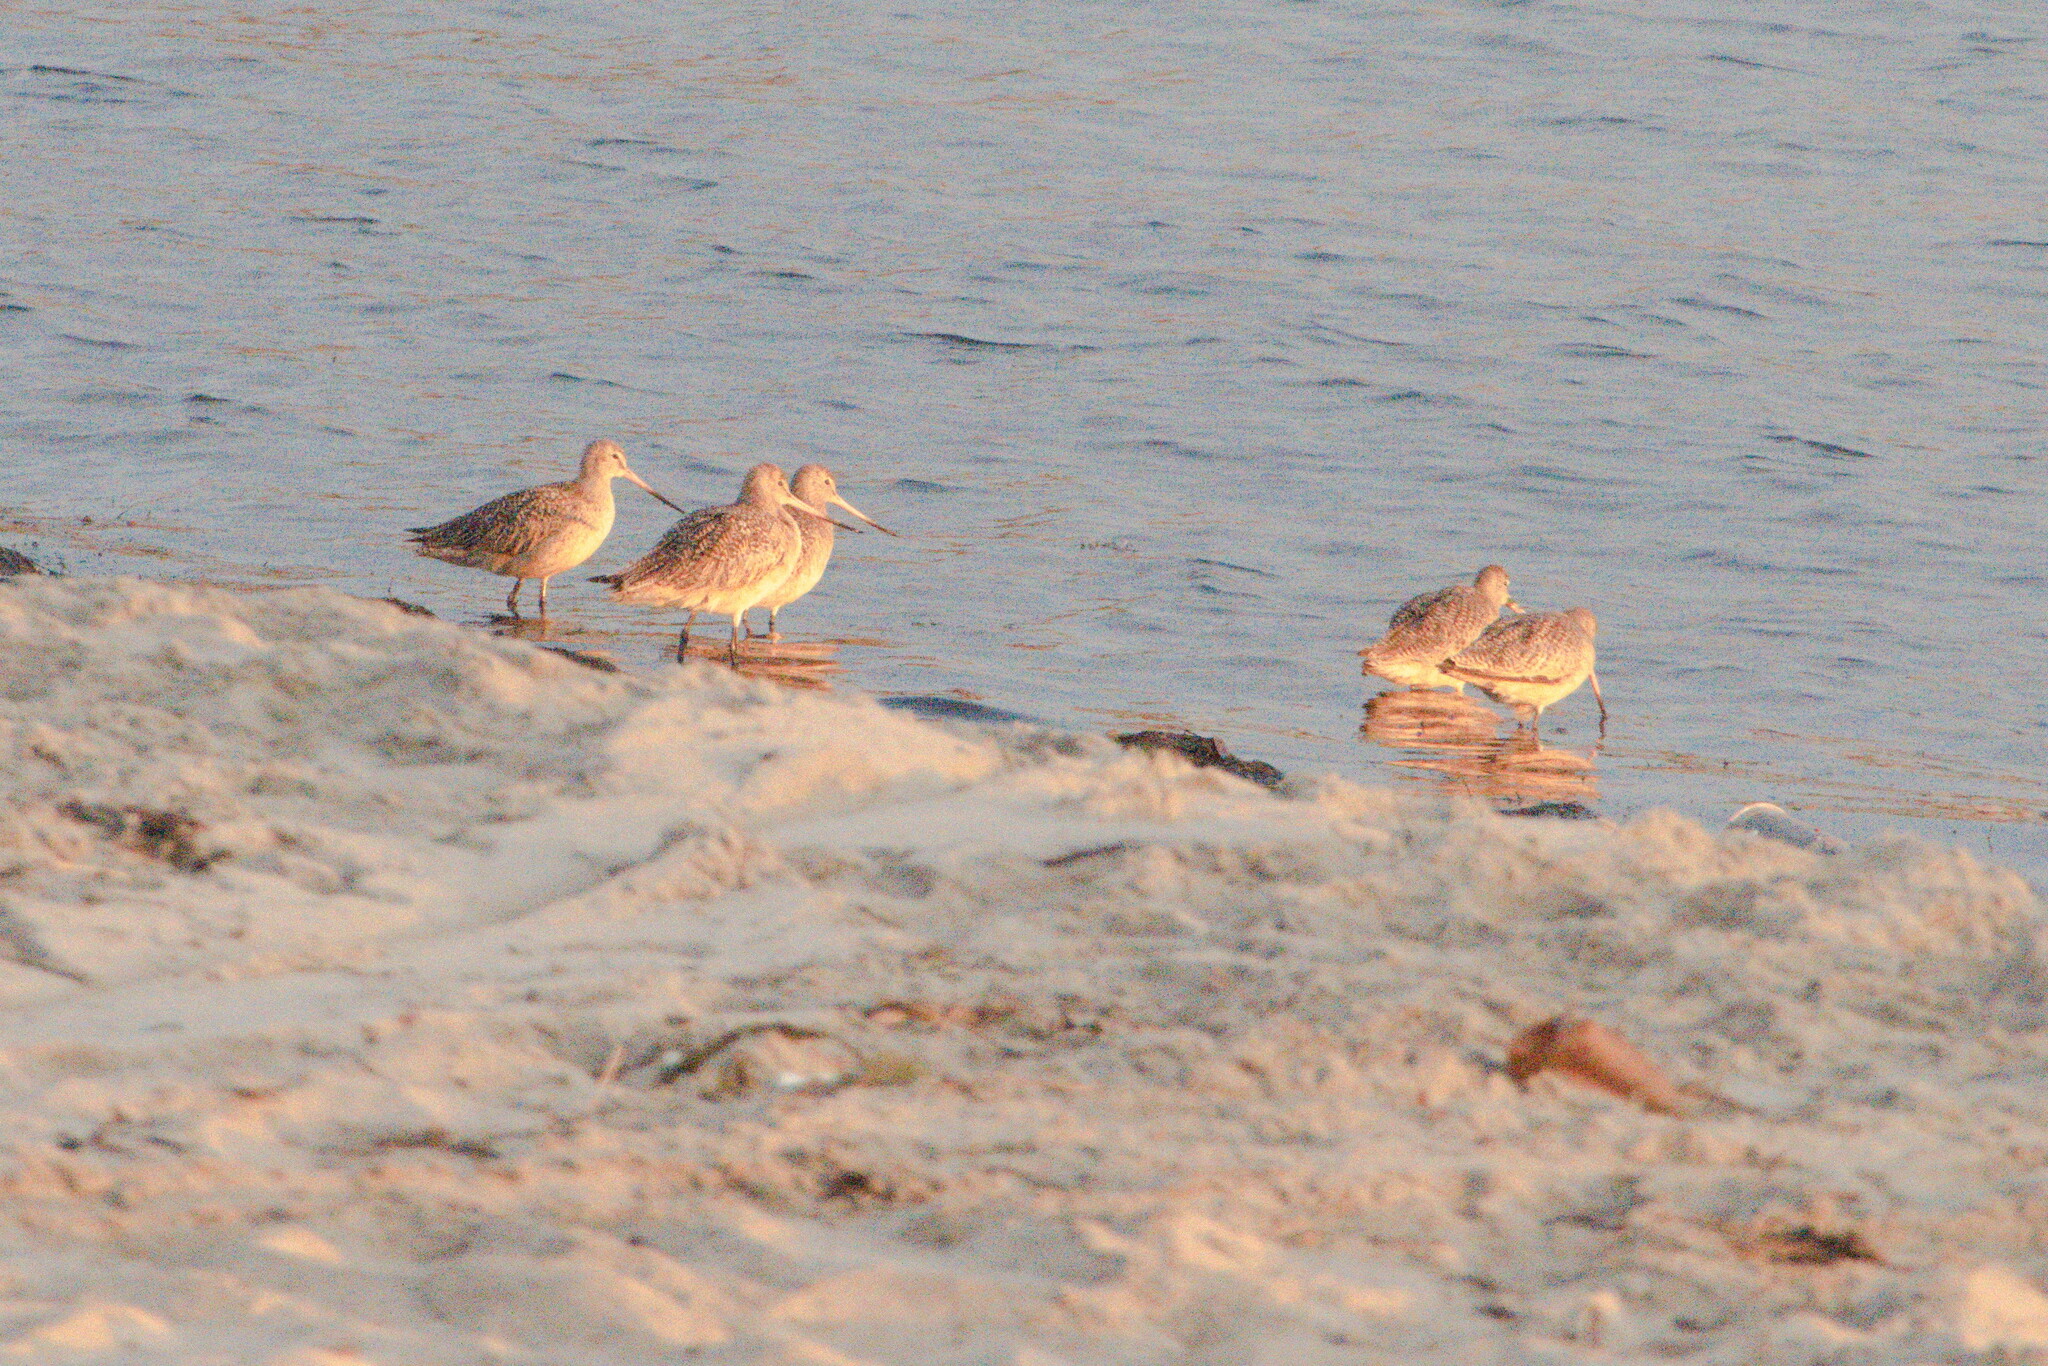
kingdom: Animalia
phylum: Chordata
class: Aves
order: Charadriiformes
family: Scolopacidae
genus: Limosa
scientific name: Limosa fedoa
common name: Marbled godwit
